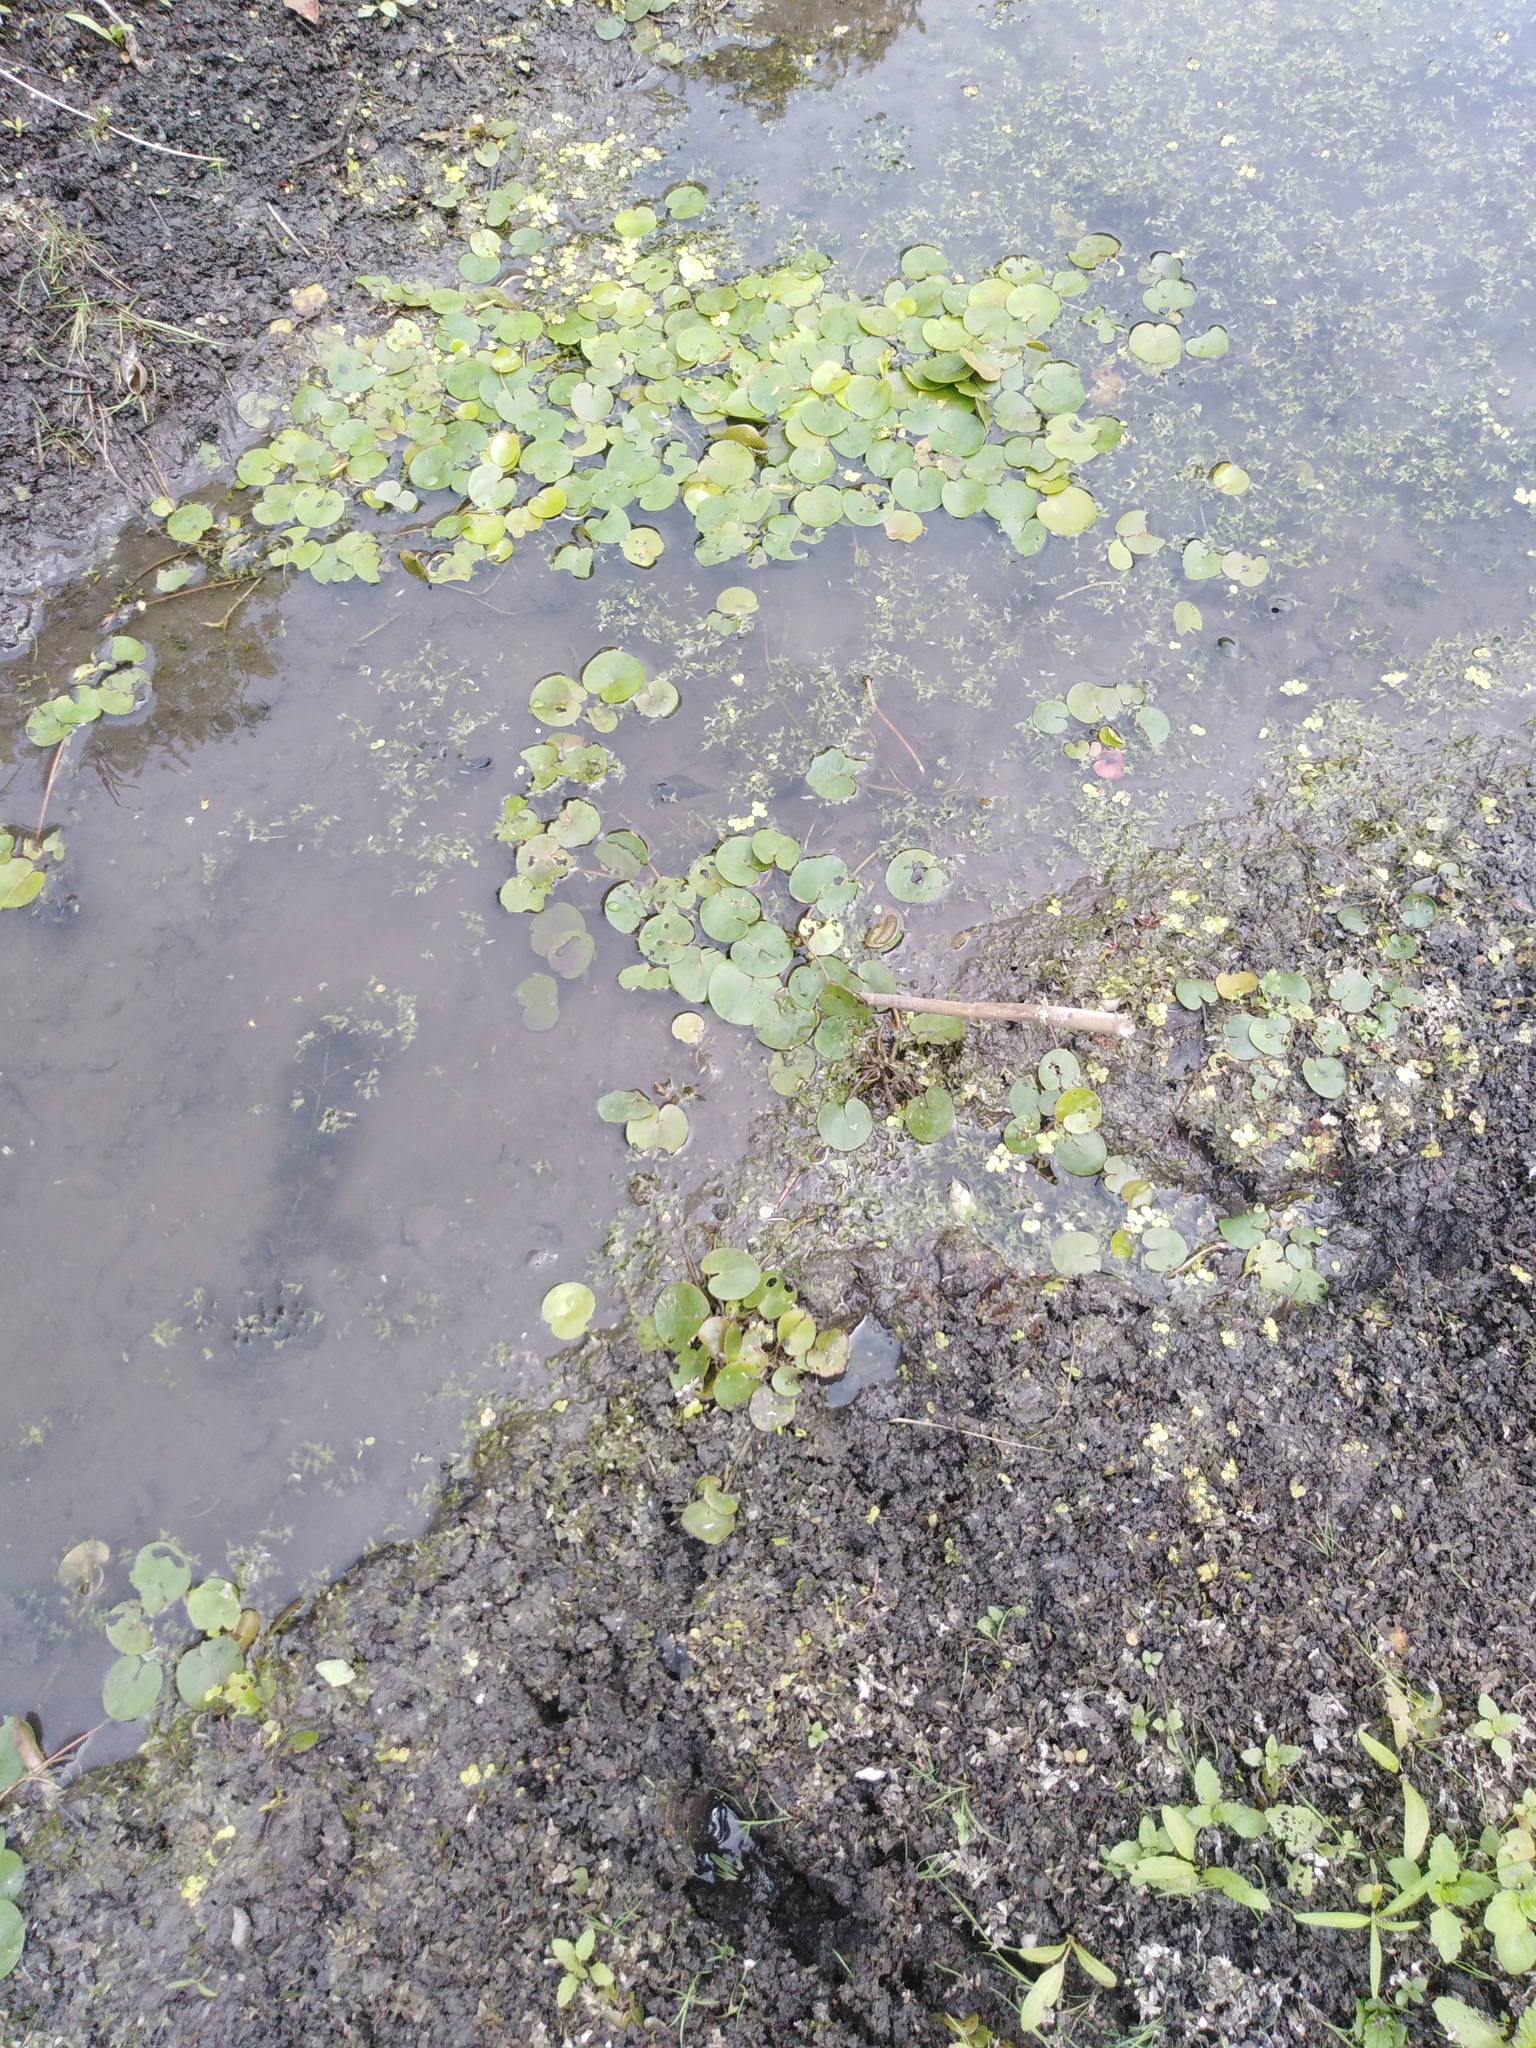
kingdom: Plantae
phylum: Tracheophyta
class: Liliopsida
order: Alismatales
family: Hydrocharitaceae
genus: Hydrocharis
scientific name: Hydrocharis morsus-ranae
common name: Frogbit
